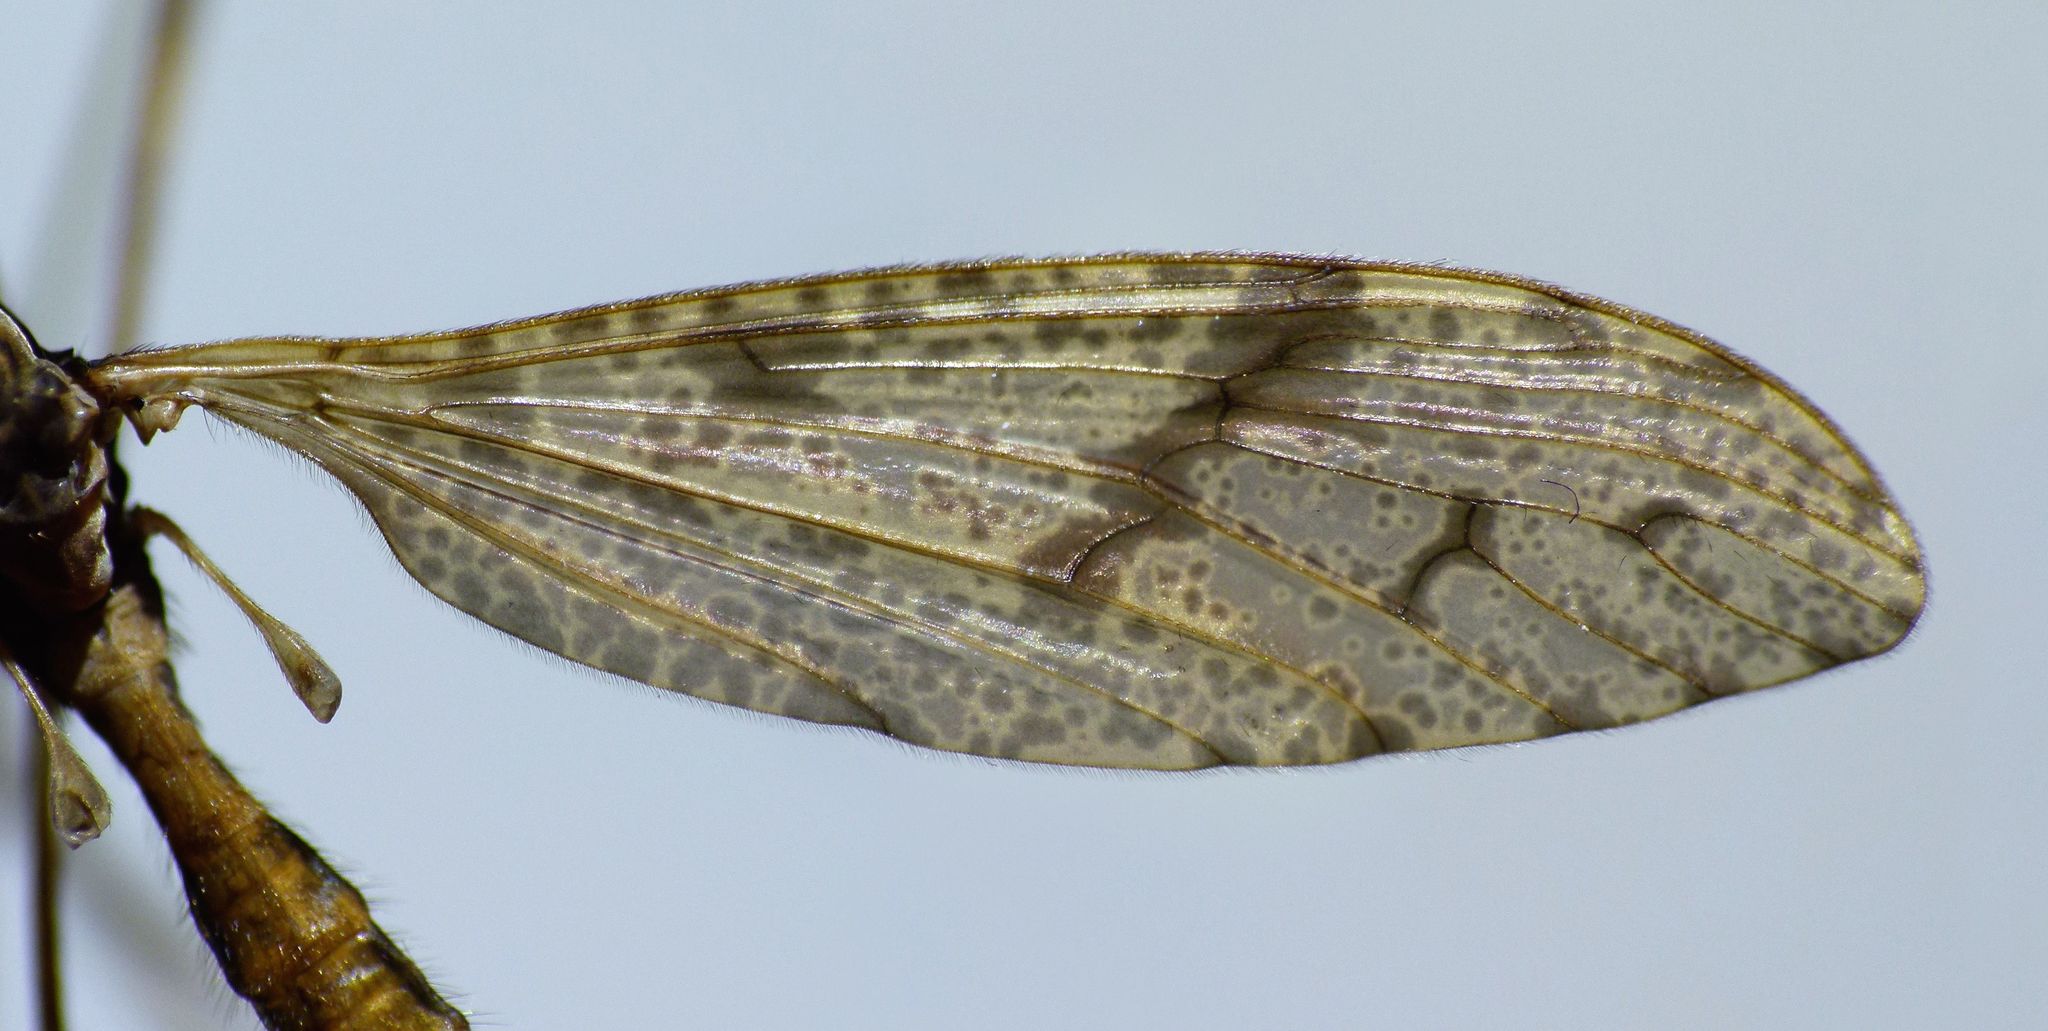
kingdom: Animalia
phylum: Arthropoda
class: Insecta
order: Diptera
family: Limoniidae
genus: Rhamphophila
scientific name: Rhamphophila sinistra
